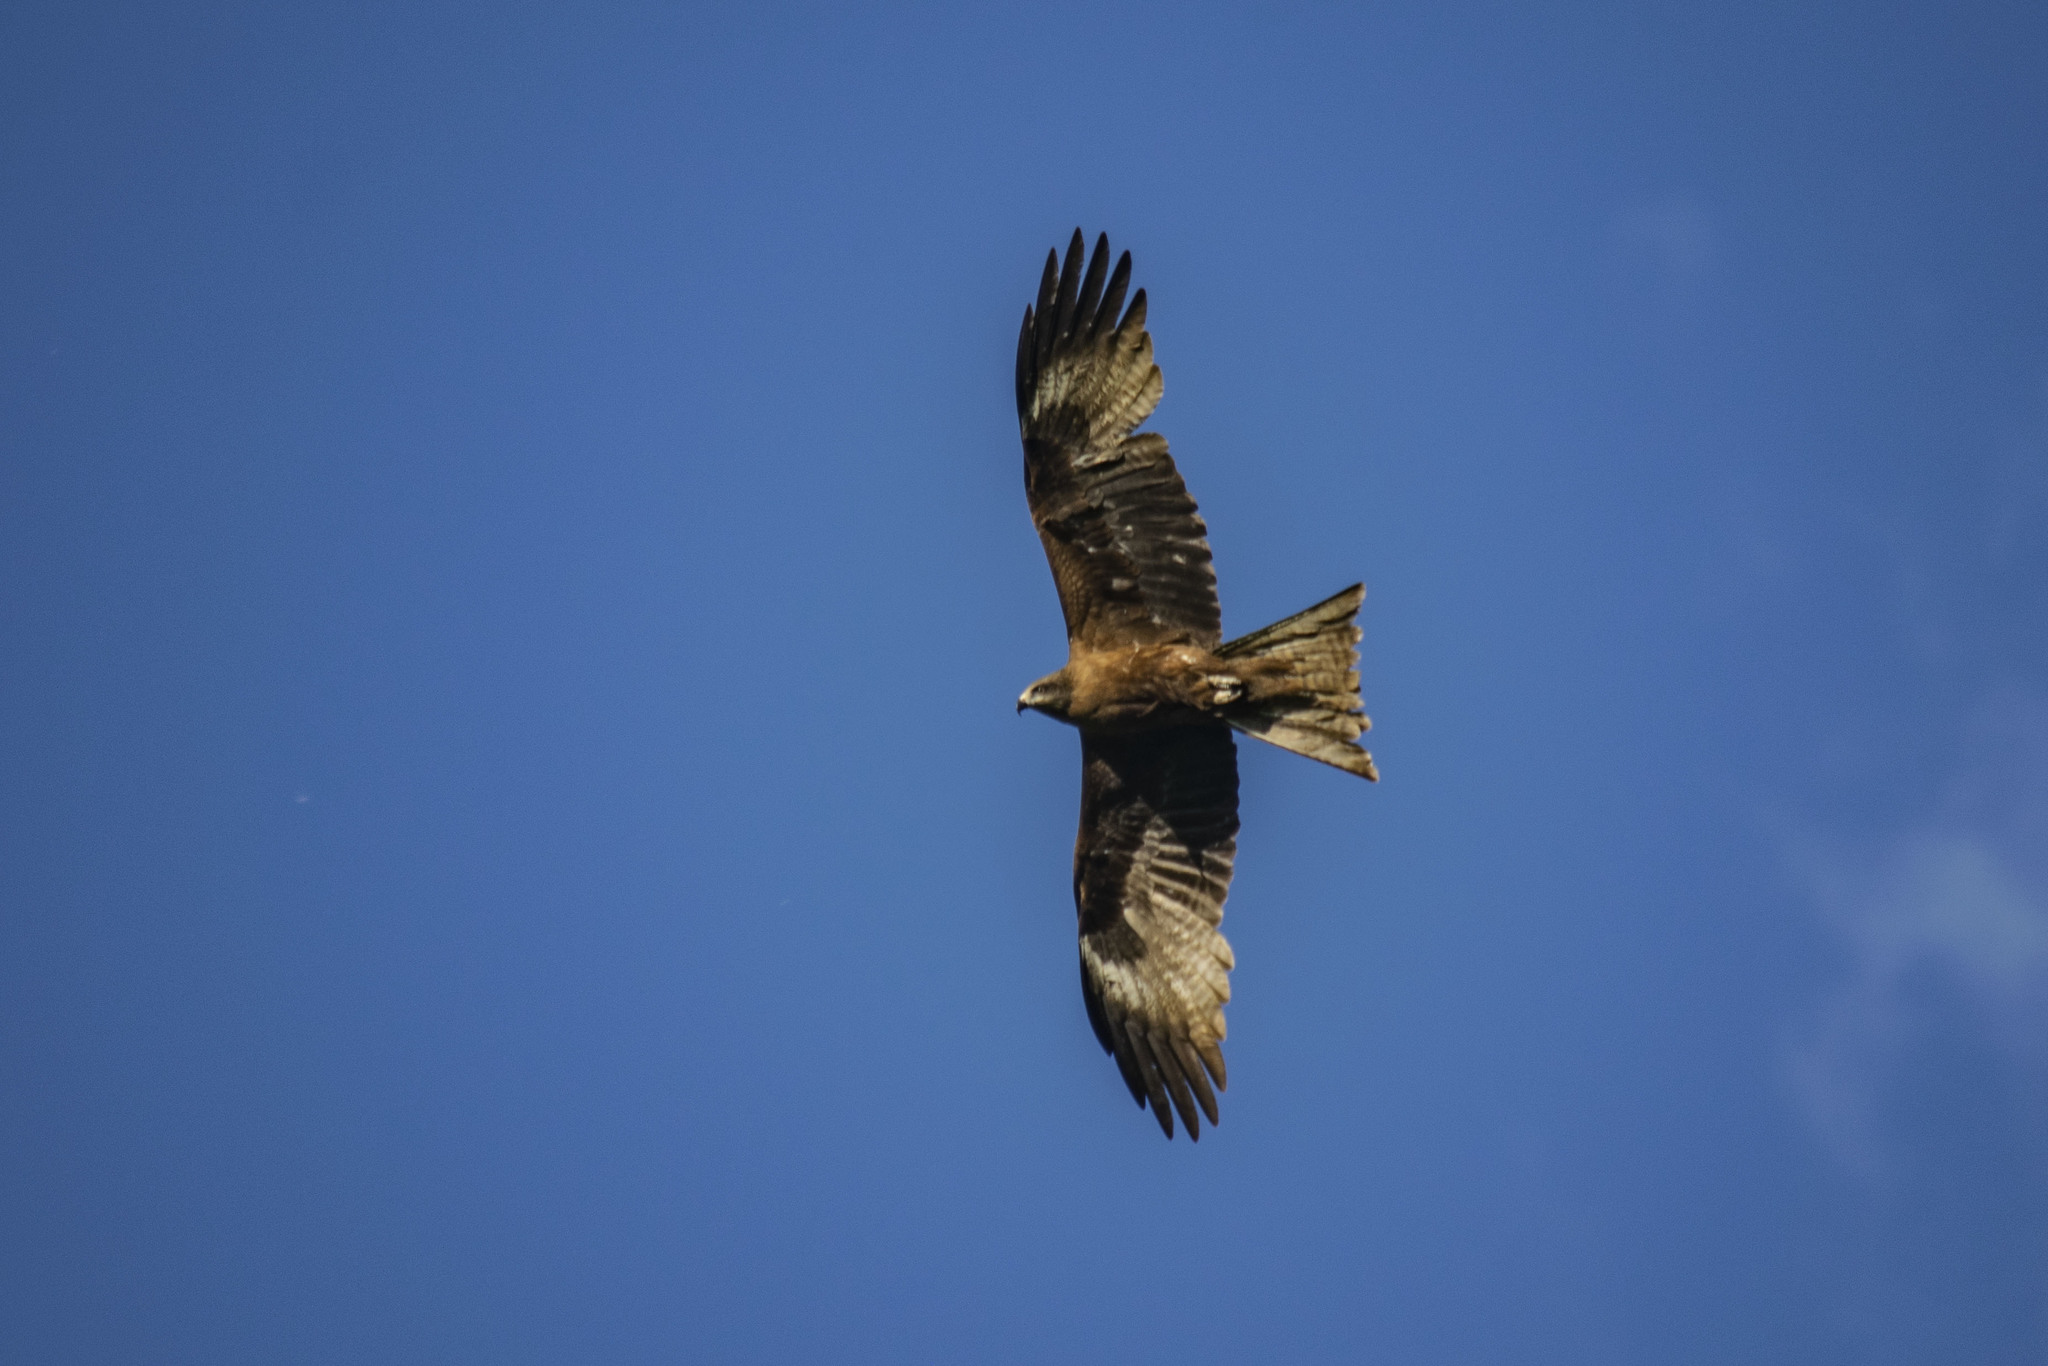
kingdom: Animalia
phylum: Chordata
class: Aves
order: Accipitriformes
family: Accipitridae
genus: Milvus
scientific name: Milvus migrans
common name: Black kite
